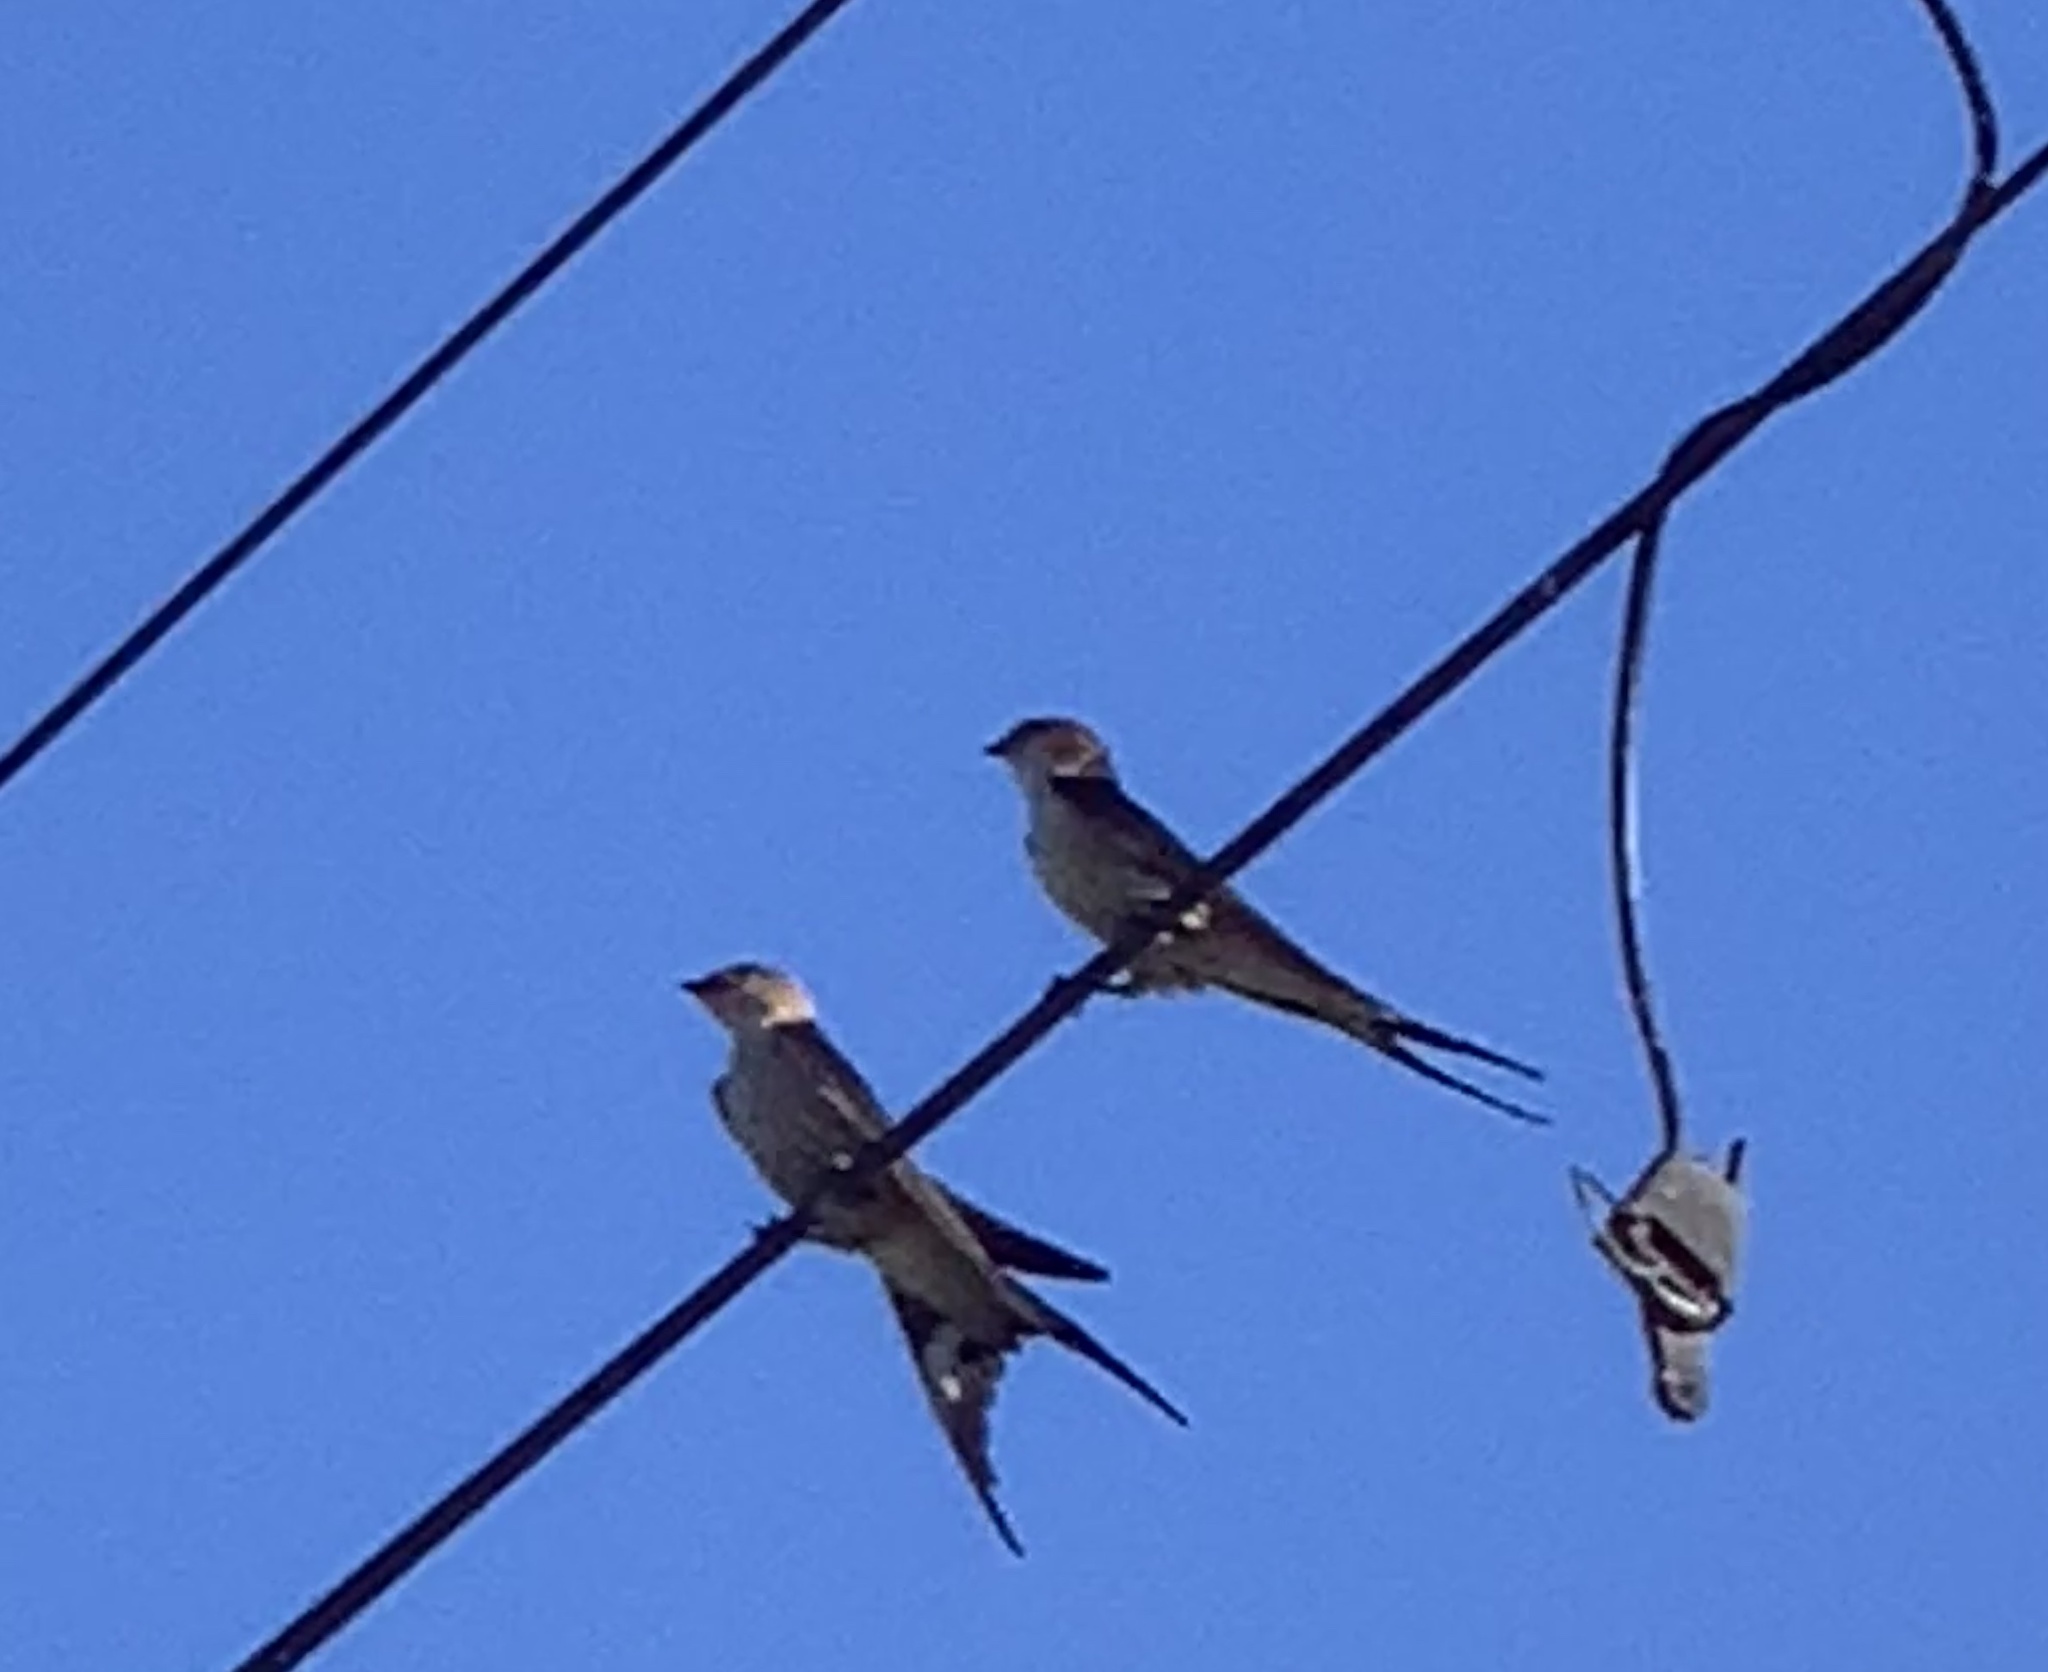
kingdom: Animalia
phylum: Chordata
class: Aves
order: Passeriformes
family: Hirundinidae
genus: Cecropis
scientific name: Cecropis cucullata
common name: Greater striped-swallow
